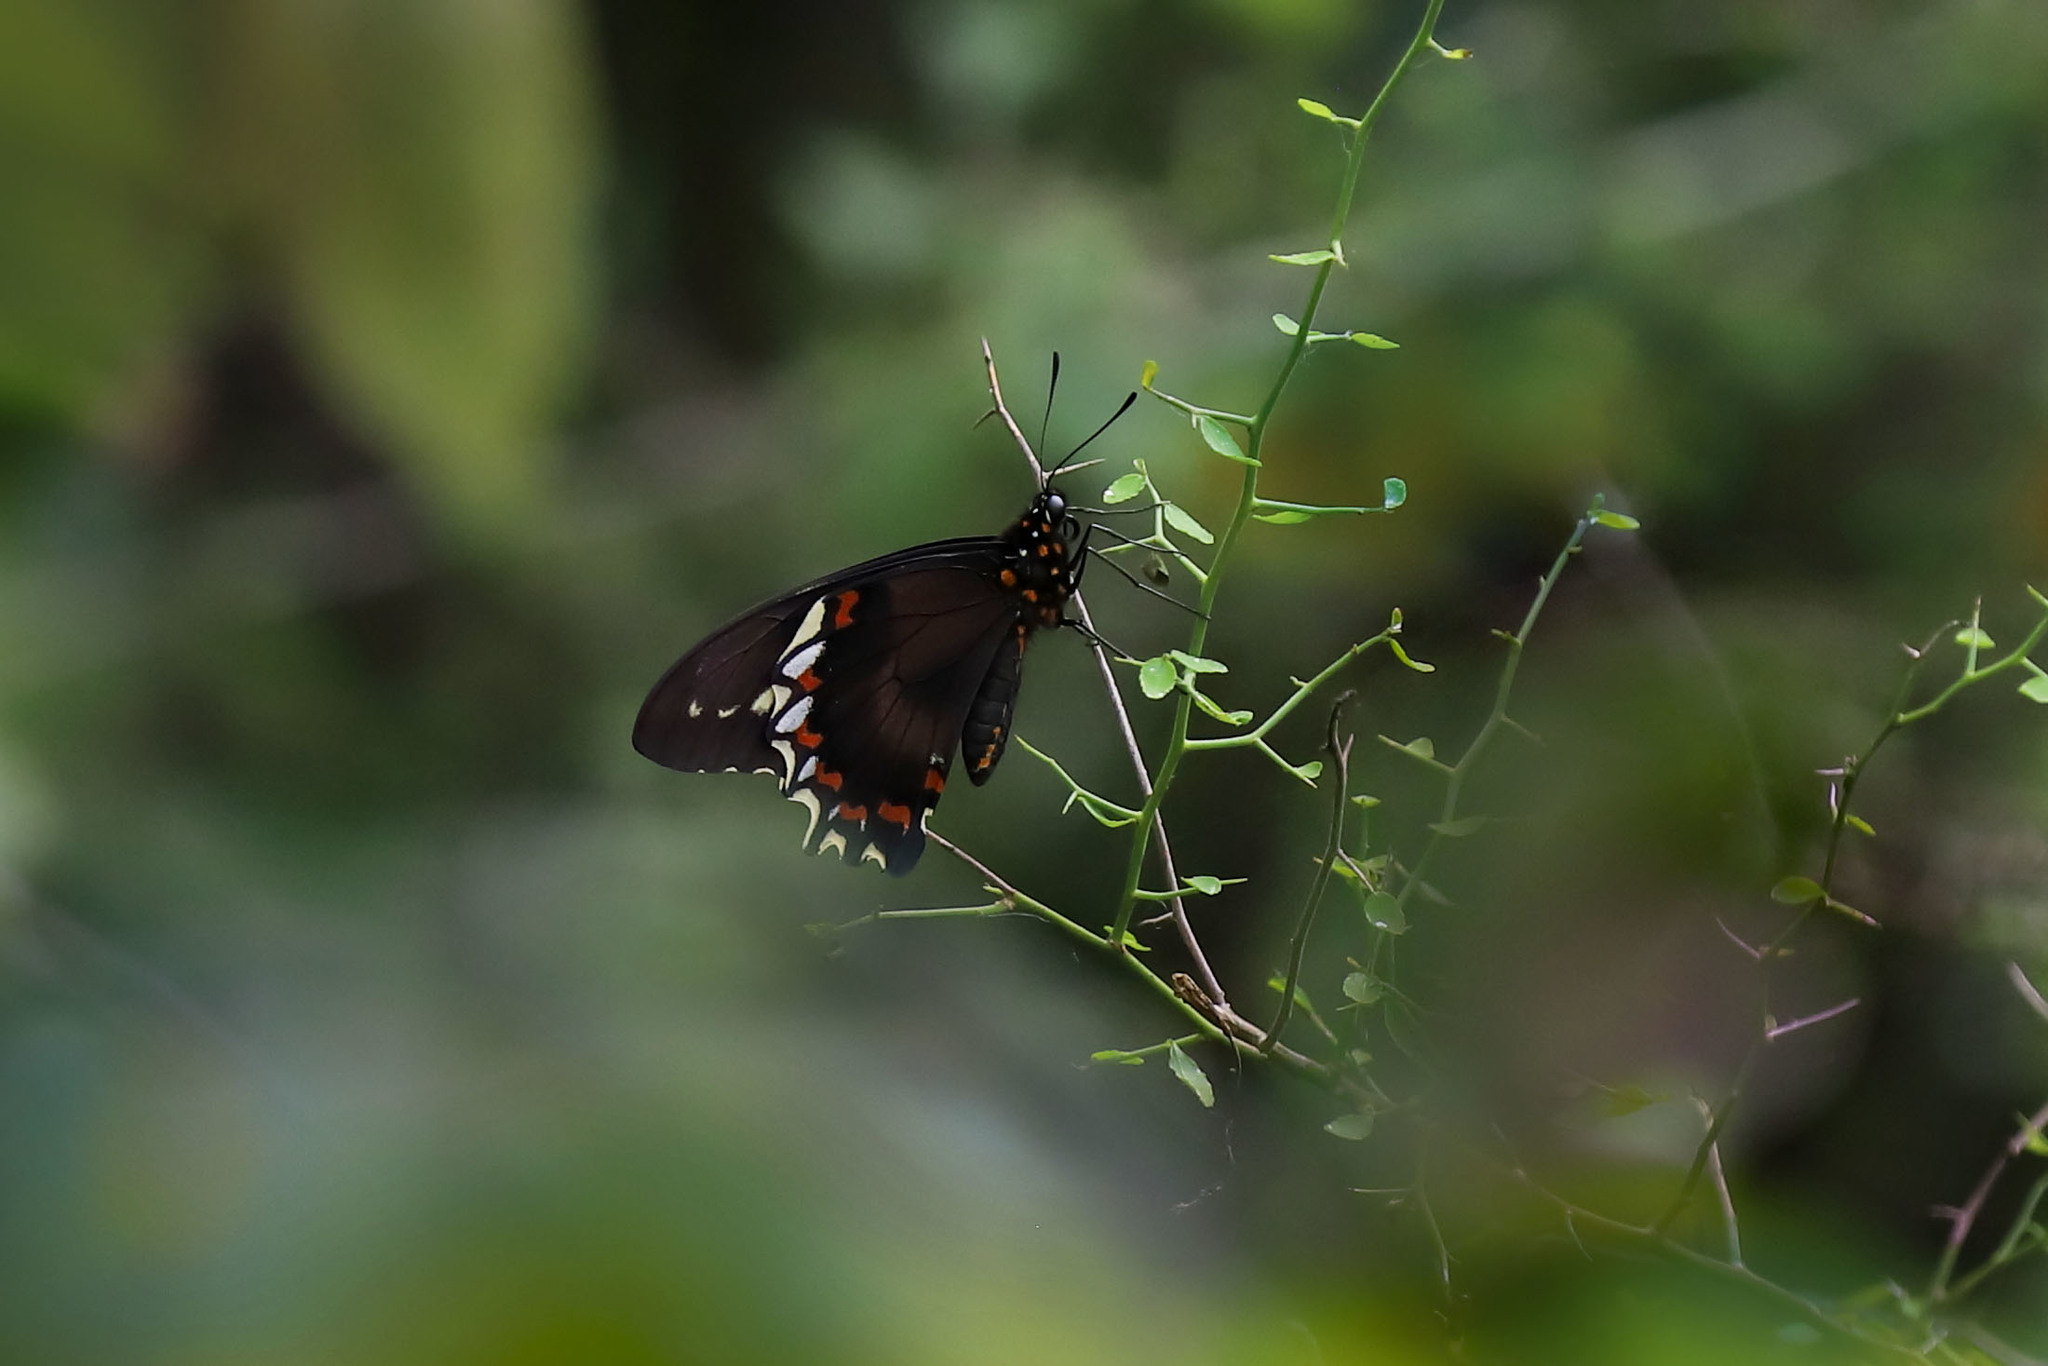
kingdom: Animalia
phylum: Arthropoda
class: Insecta
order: Lepidoptera
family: Papilionidae
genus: Battus
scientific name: Battus polydamas
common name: Polydamas swallowtail
